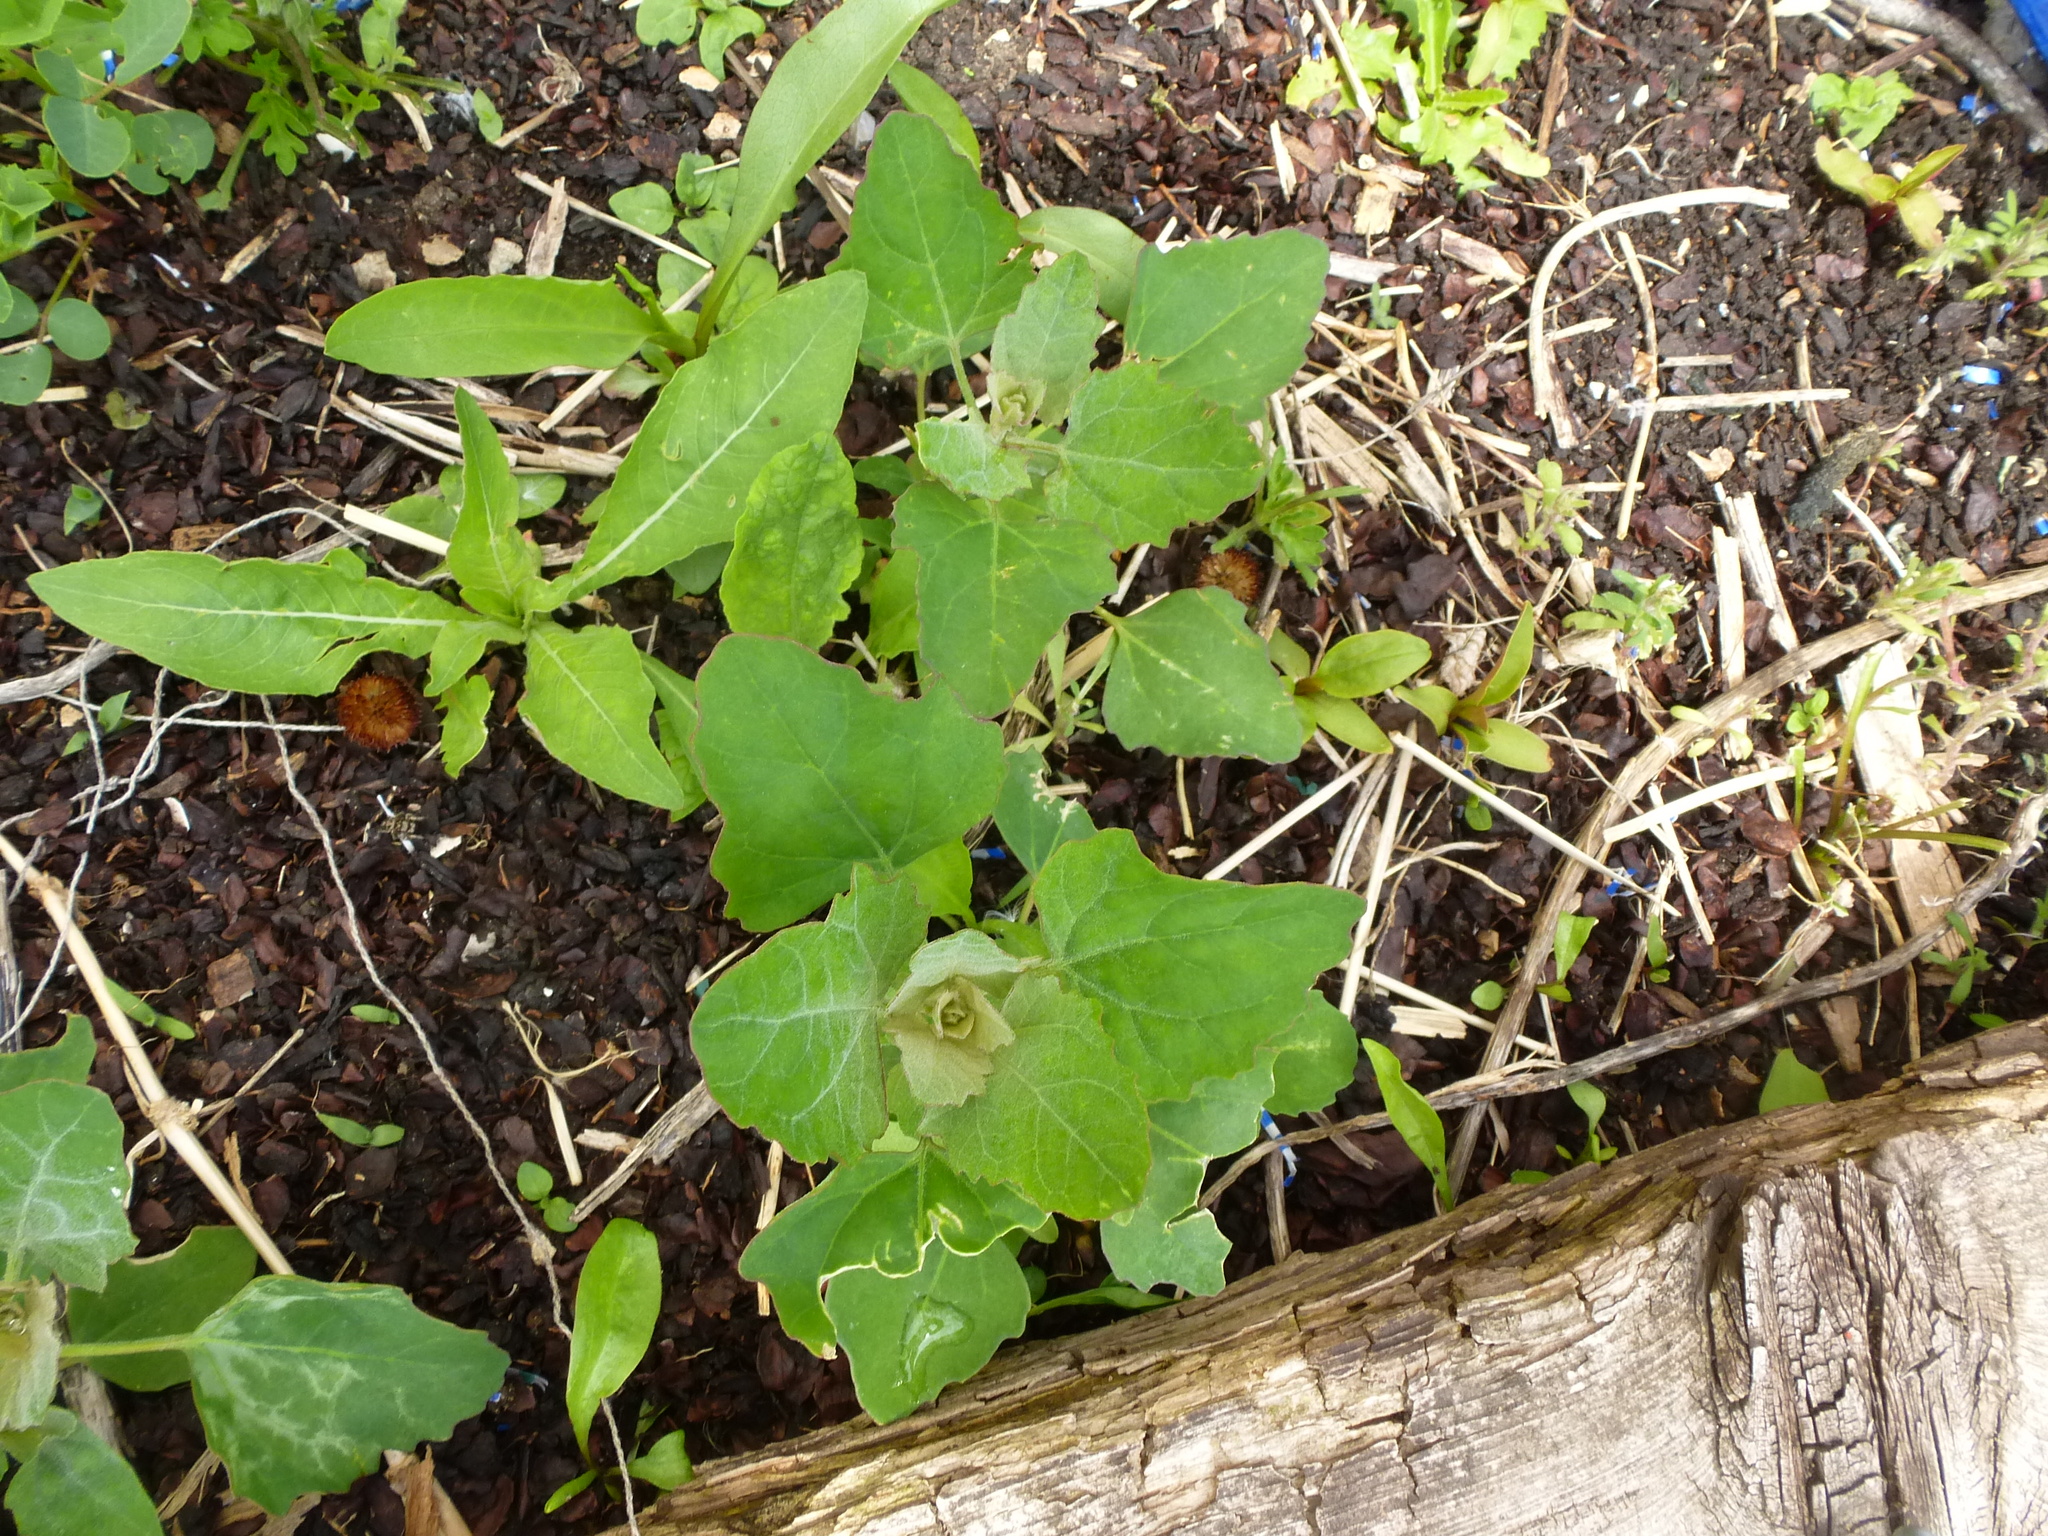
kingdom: Plantae
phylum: Tracheophyta
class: Magnoliopsida
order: Caryophyllales
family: Amaranthaceae
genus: Chenopodium
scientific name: Chenopodium album
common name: Fat-hen
